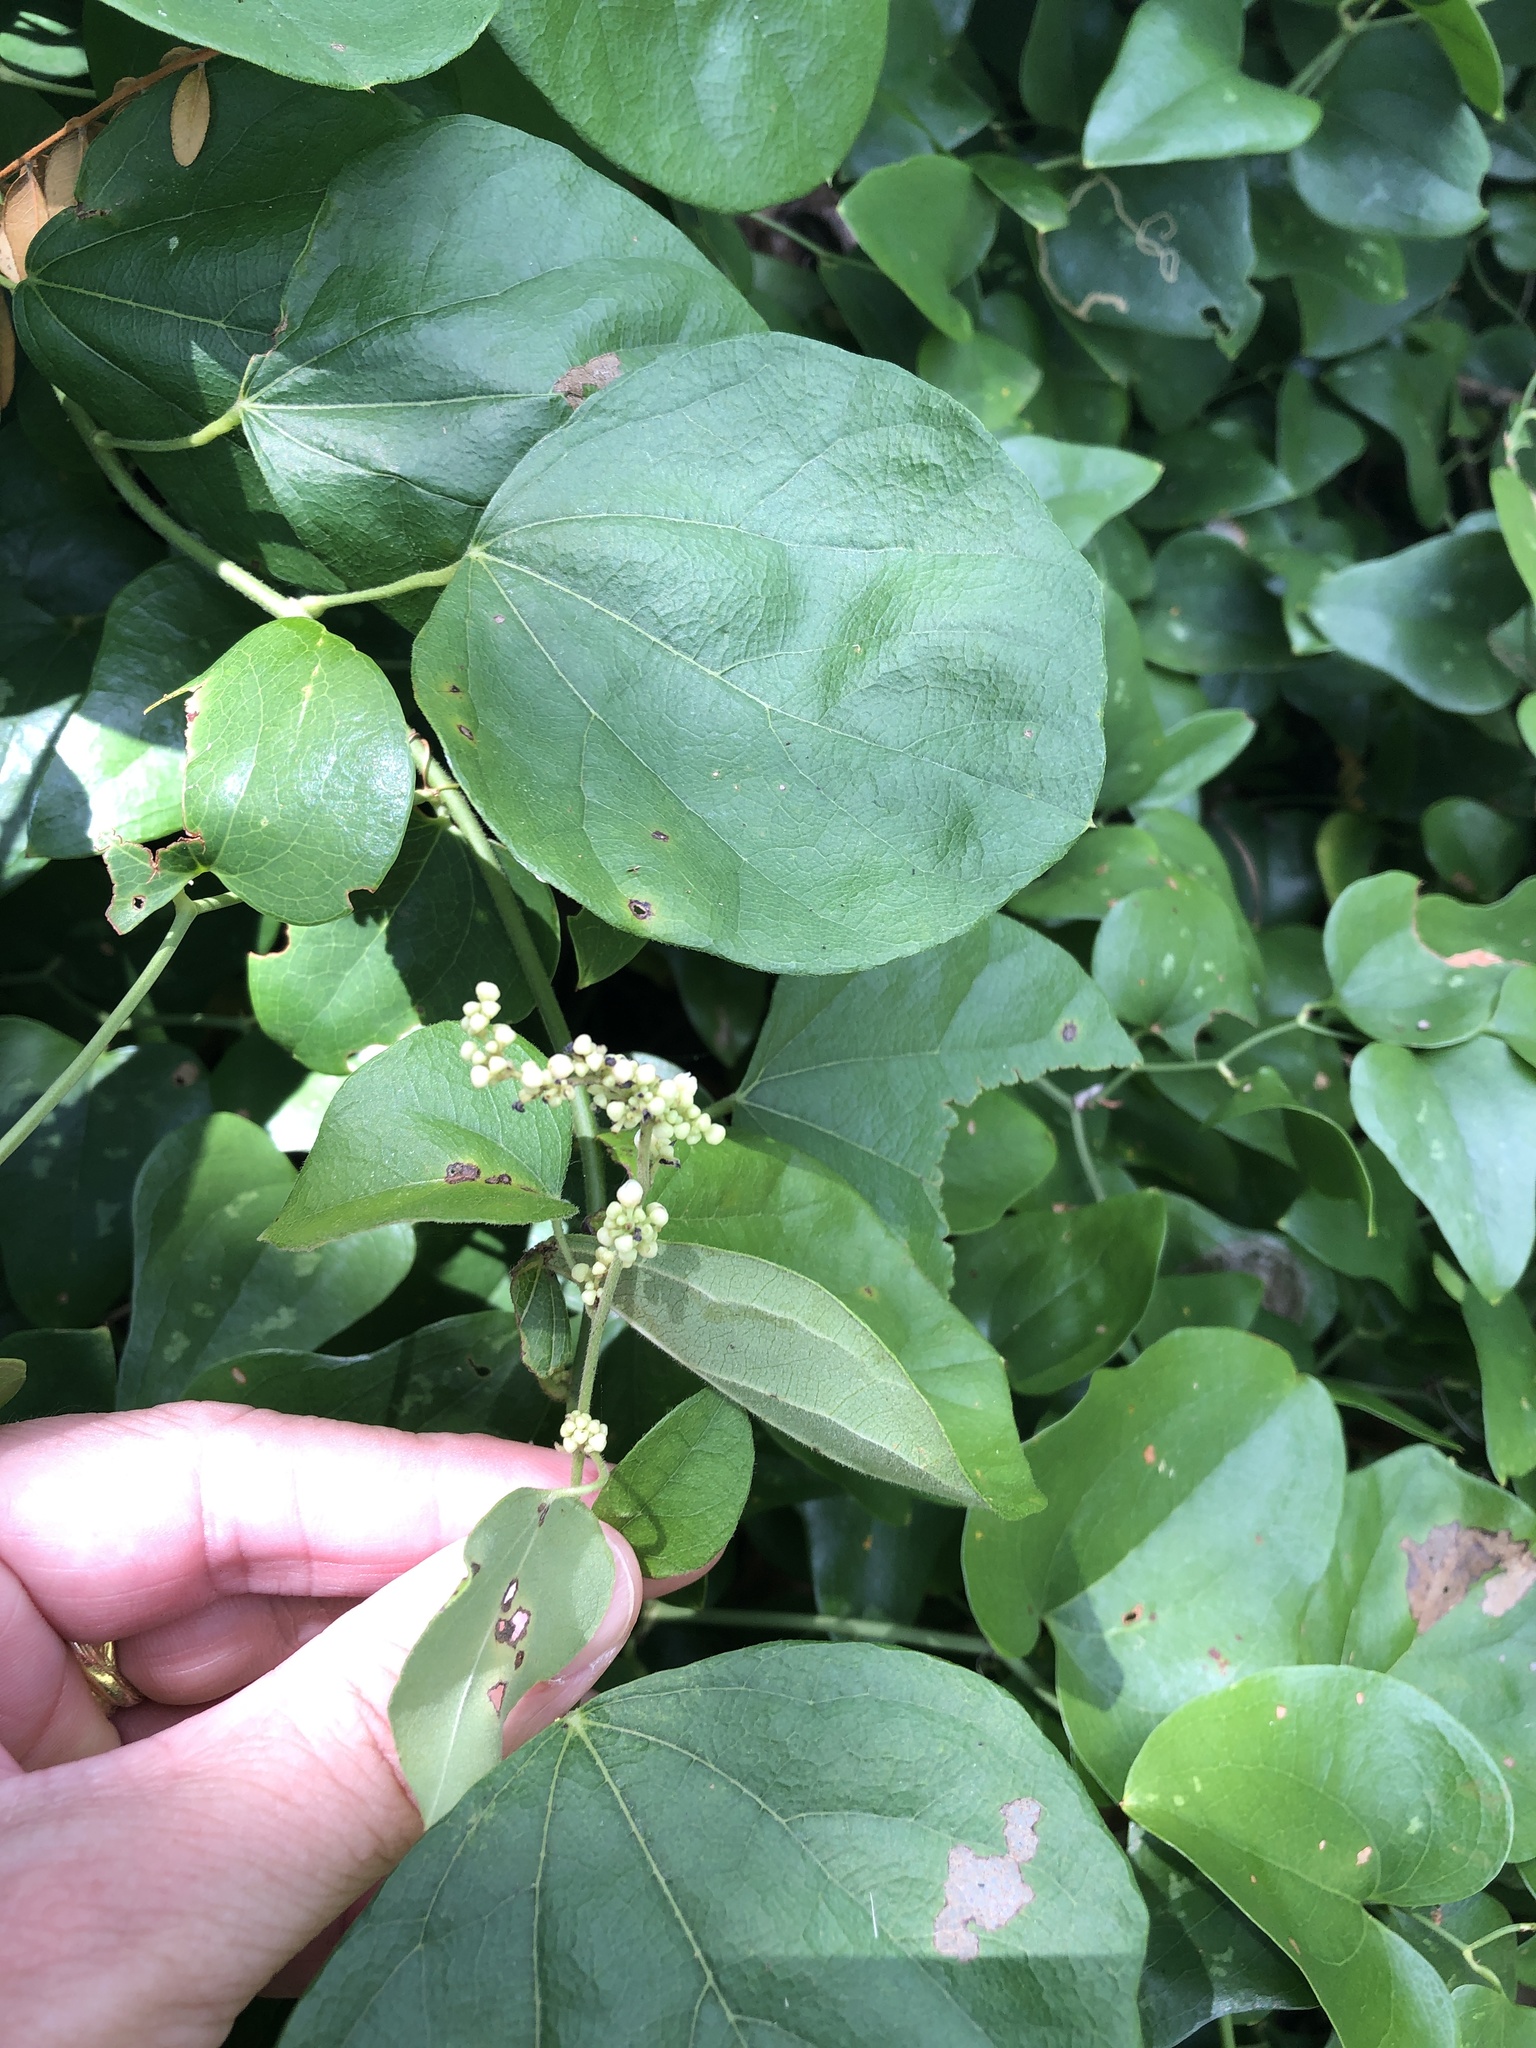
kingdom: Plantae
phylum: Tracheophyta
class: Magnoliopsida
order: Ranunculales
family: Menispermaceae
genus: Cocculus
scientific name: Cocculus carolinus
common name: Carolina moonseed
